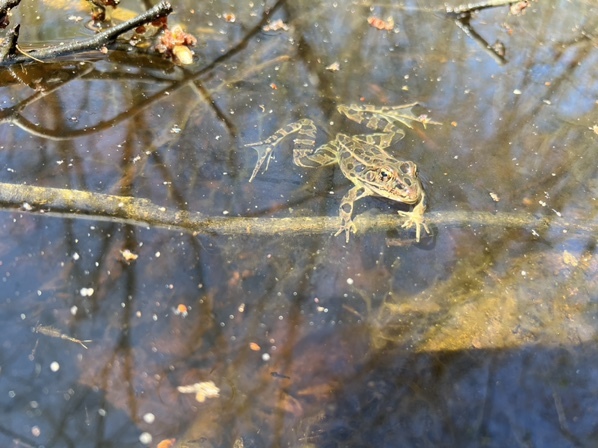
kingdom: Animalia
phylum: Chordata
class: Amphibia
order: Anura
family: Ranidae
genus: Lithobates
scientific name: Lithobates pipiens
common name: Northern leopard frog
